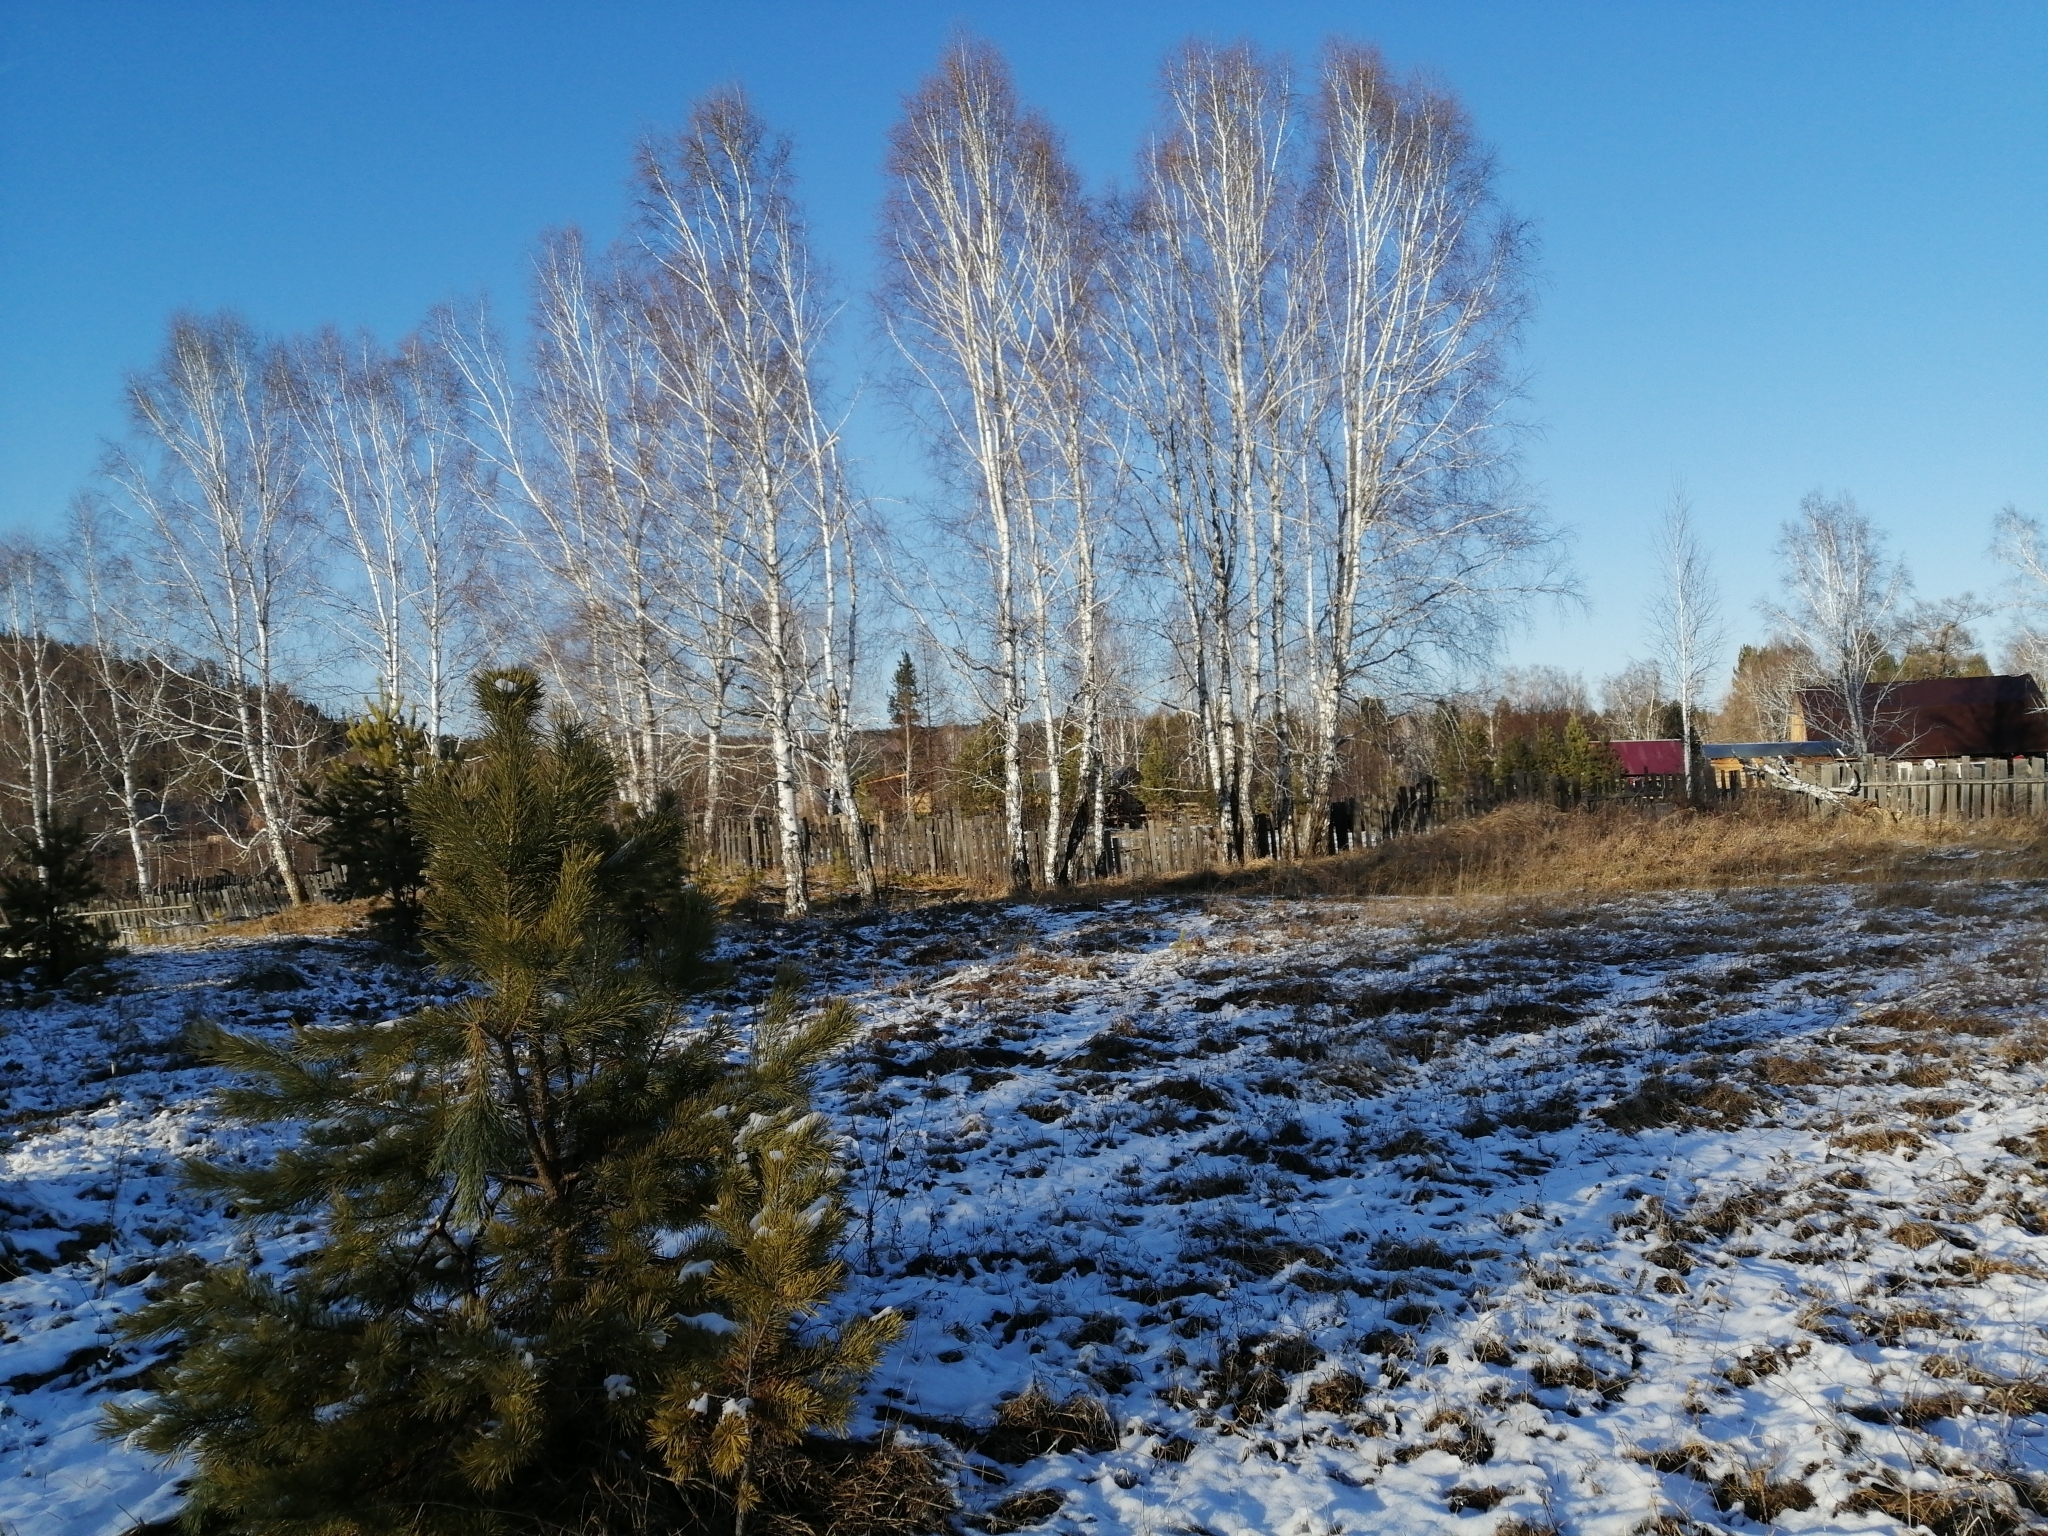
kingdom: Plantae
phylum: Tracheophyta
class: Pinopsida
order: Pinales
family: Pinaceae
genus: Pinus
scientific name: Pinus sylvestris
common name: Scots pine
